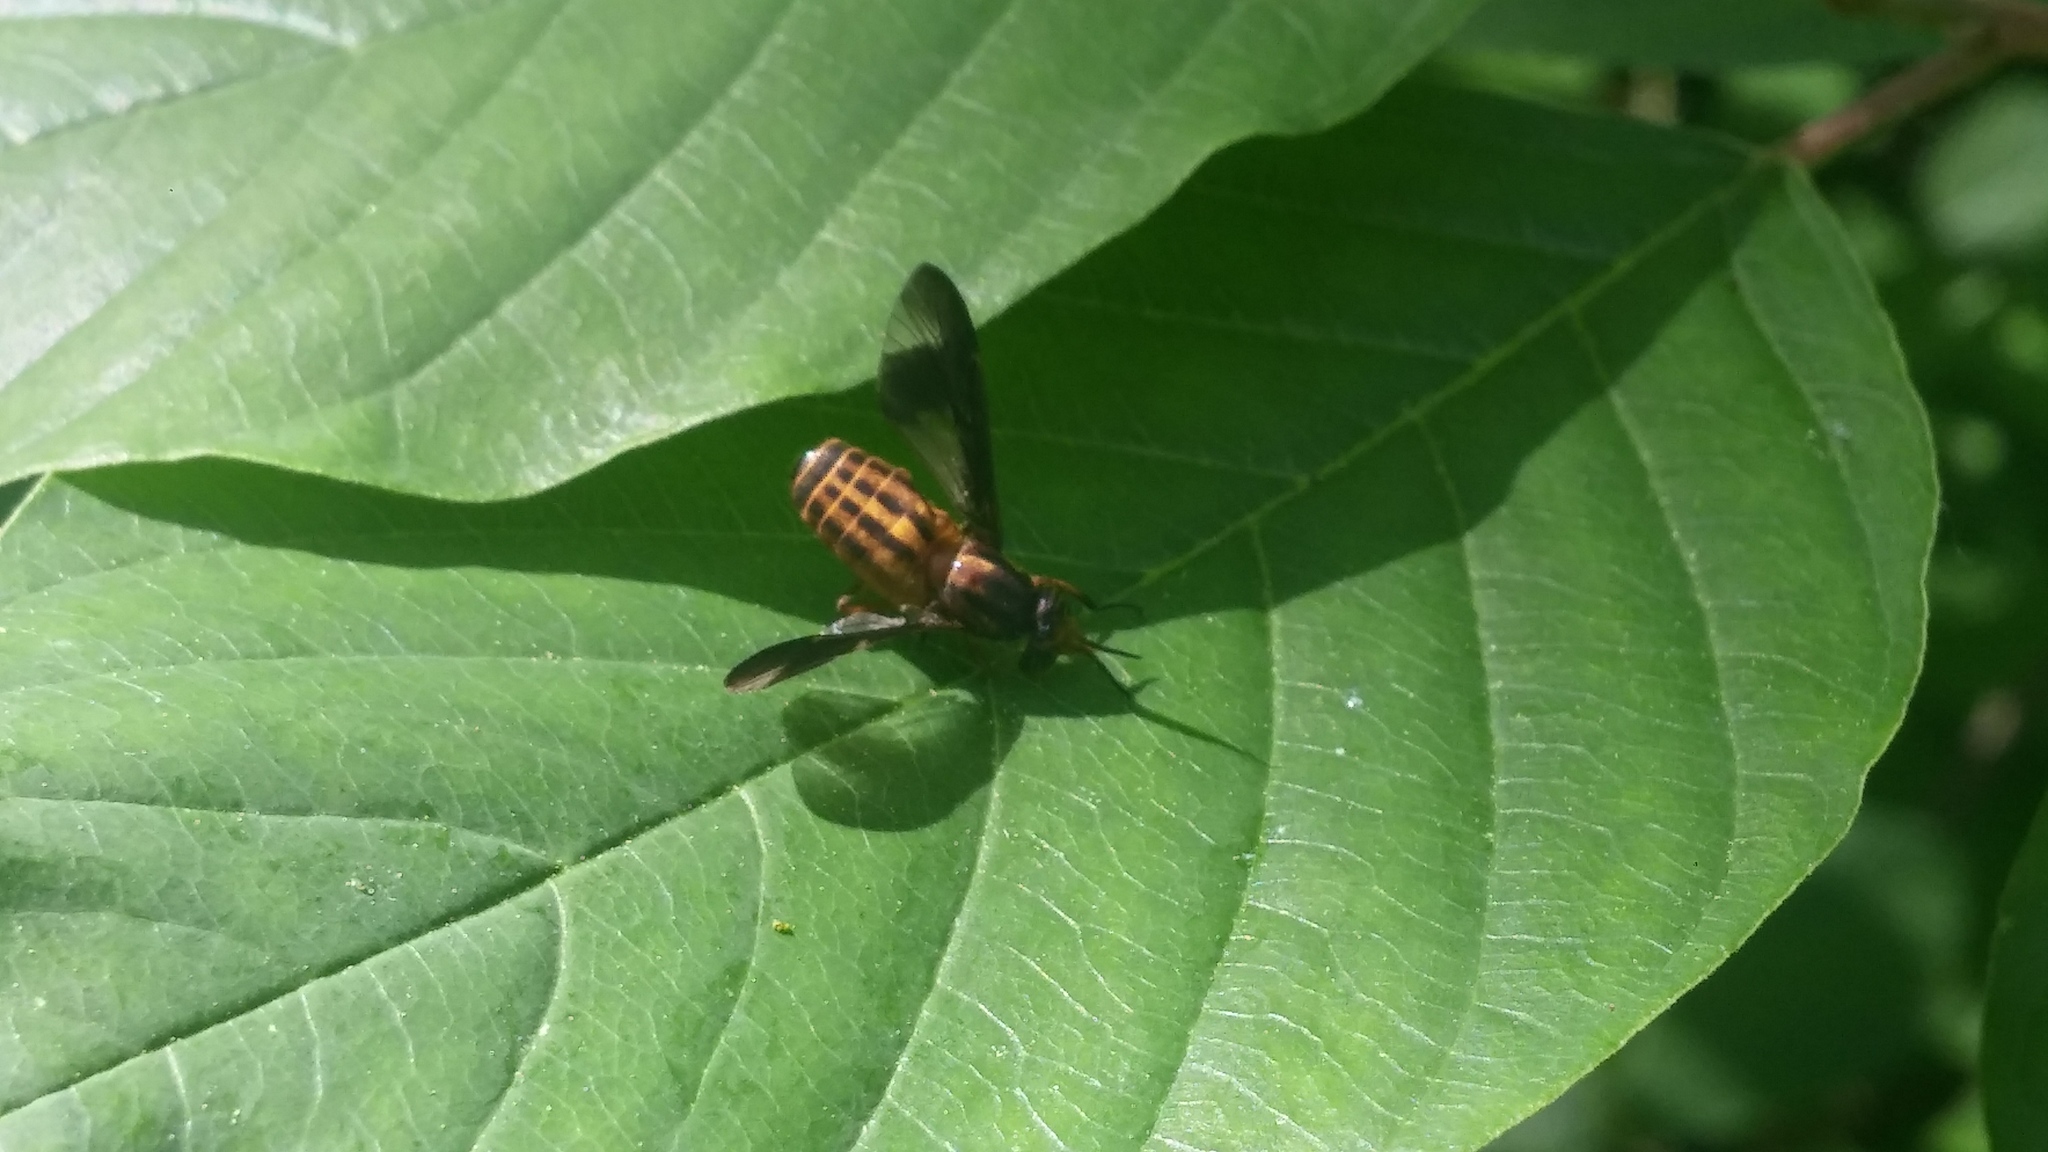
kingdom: Animalia
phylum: Arthropoda
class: Insecta
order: Diptera
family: Tabanidae
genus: Chrysops
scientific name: Chrysops vittatus
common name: Striped deer fly
